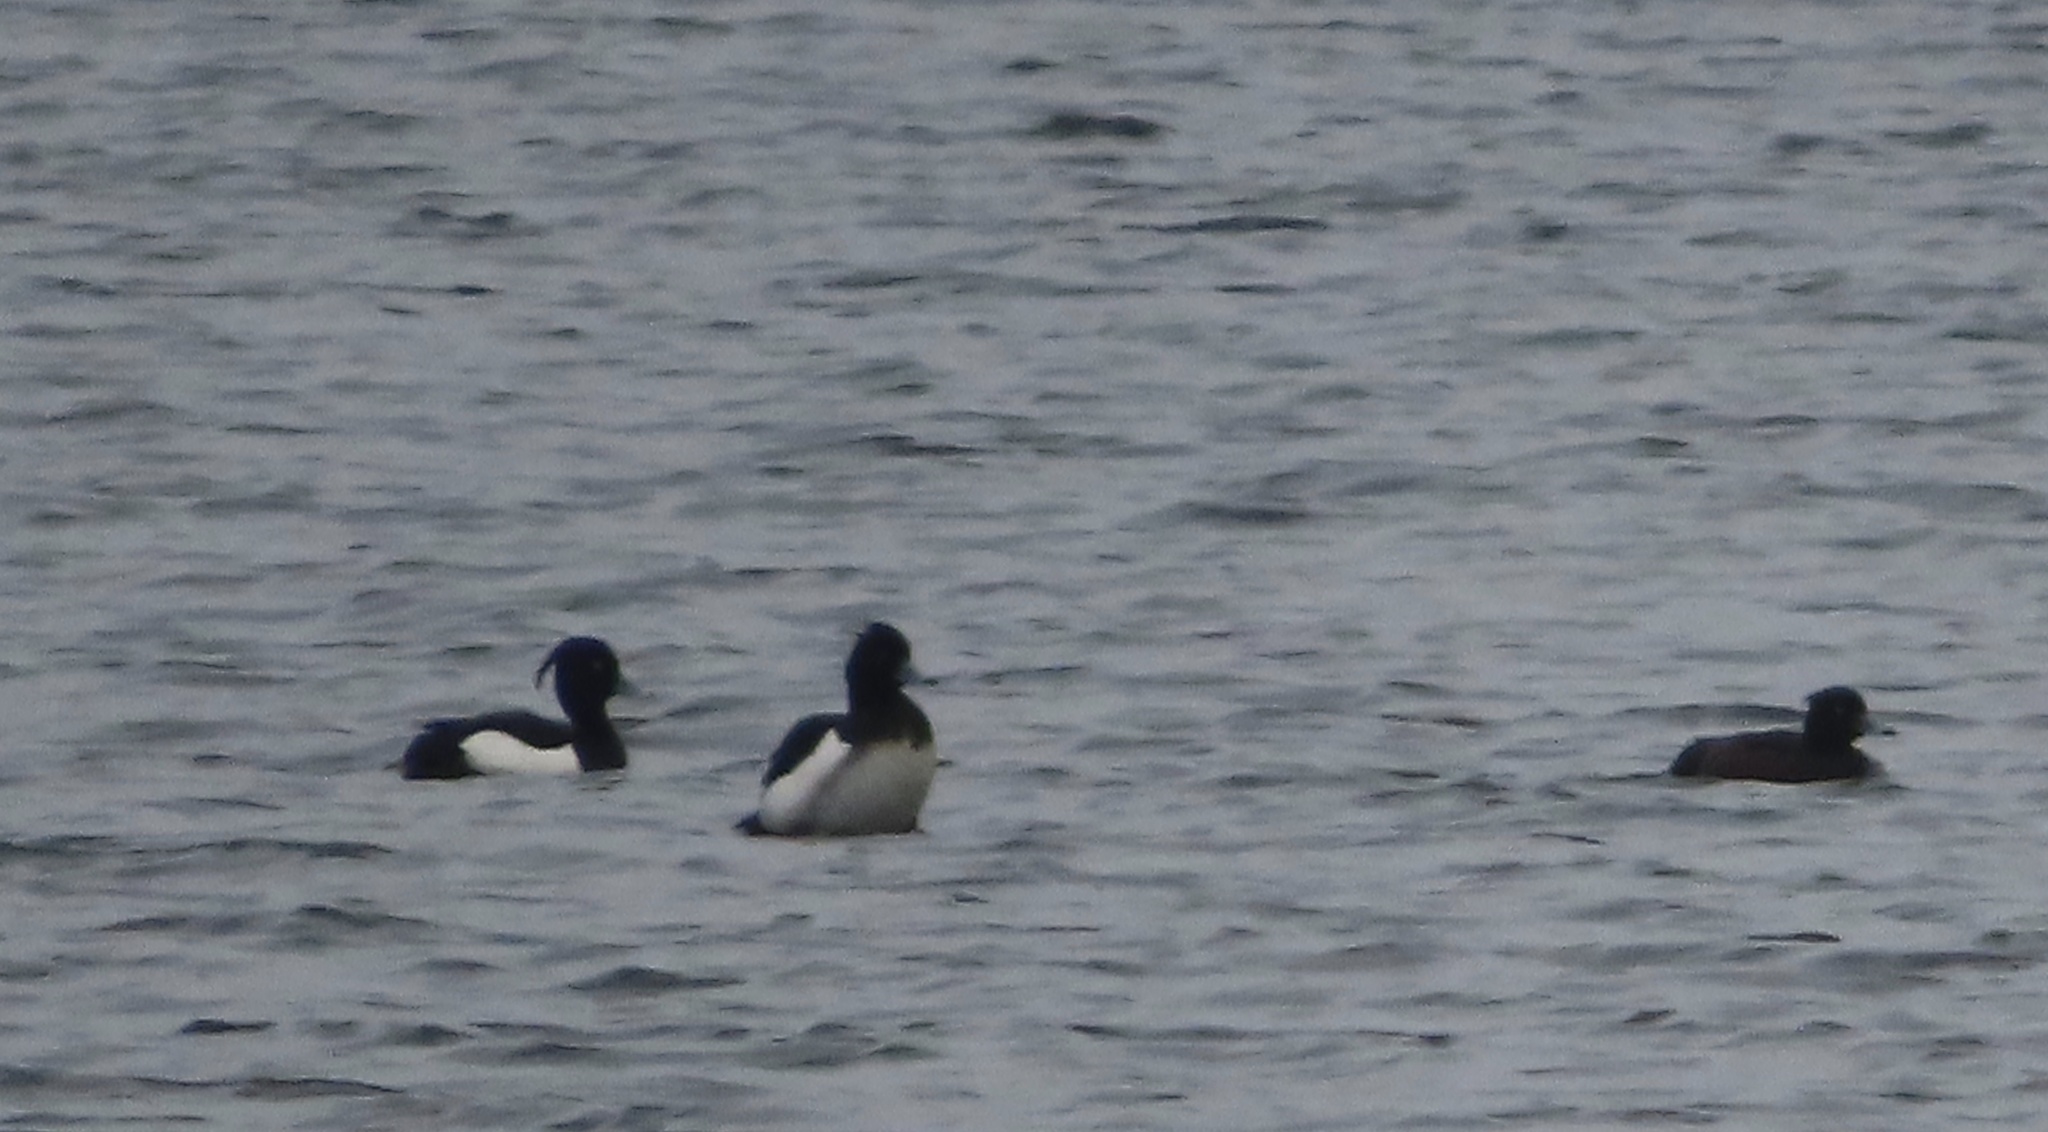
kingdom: Animalia
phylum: Chordata
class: Aves
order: Anseriformes
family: Anatidae
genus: Aythya
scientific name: Aythya fuligula
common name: Tufted duck
